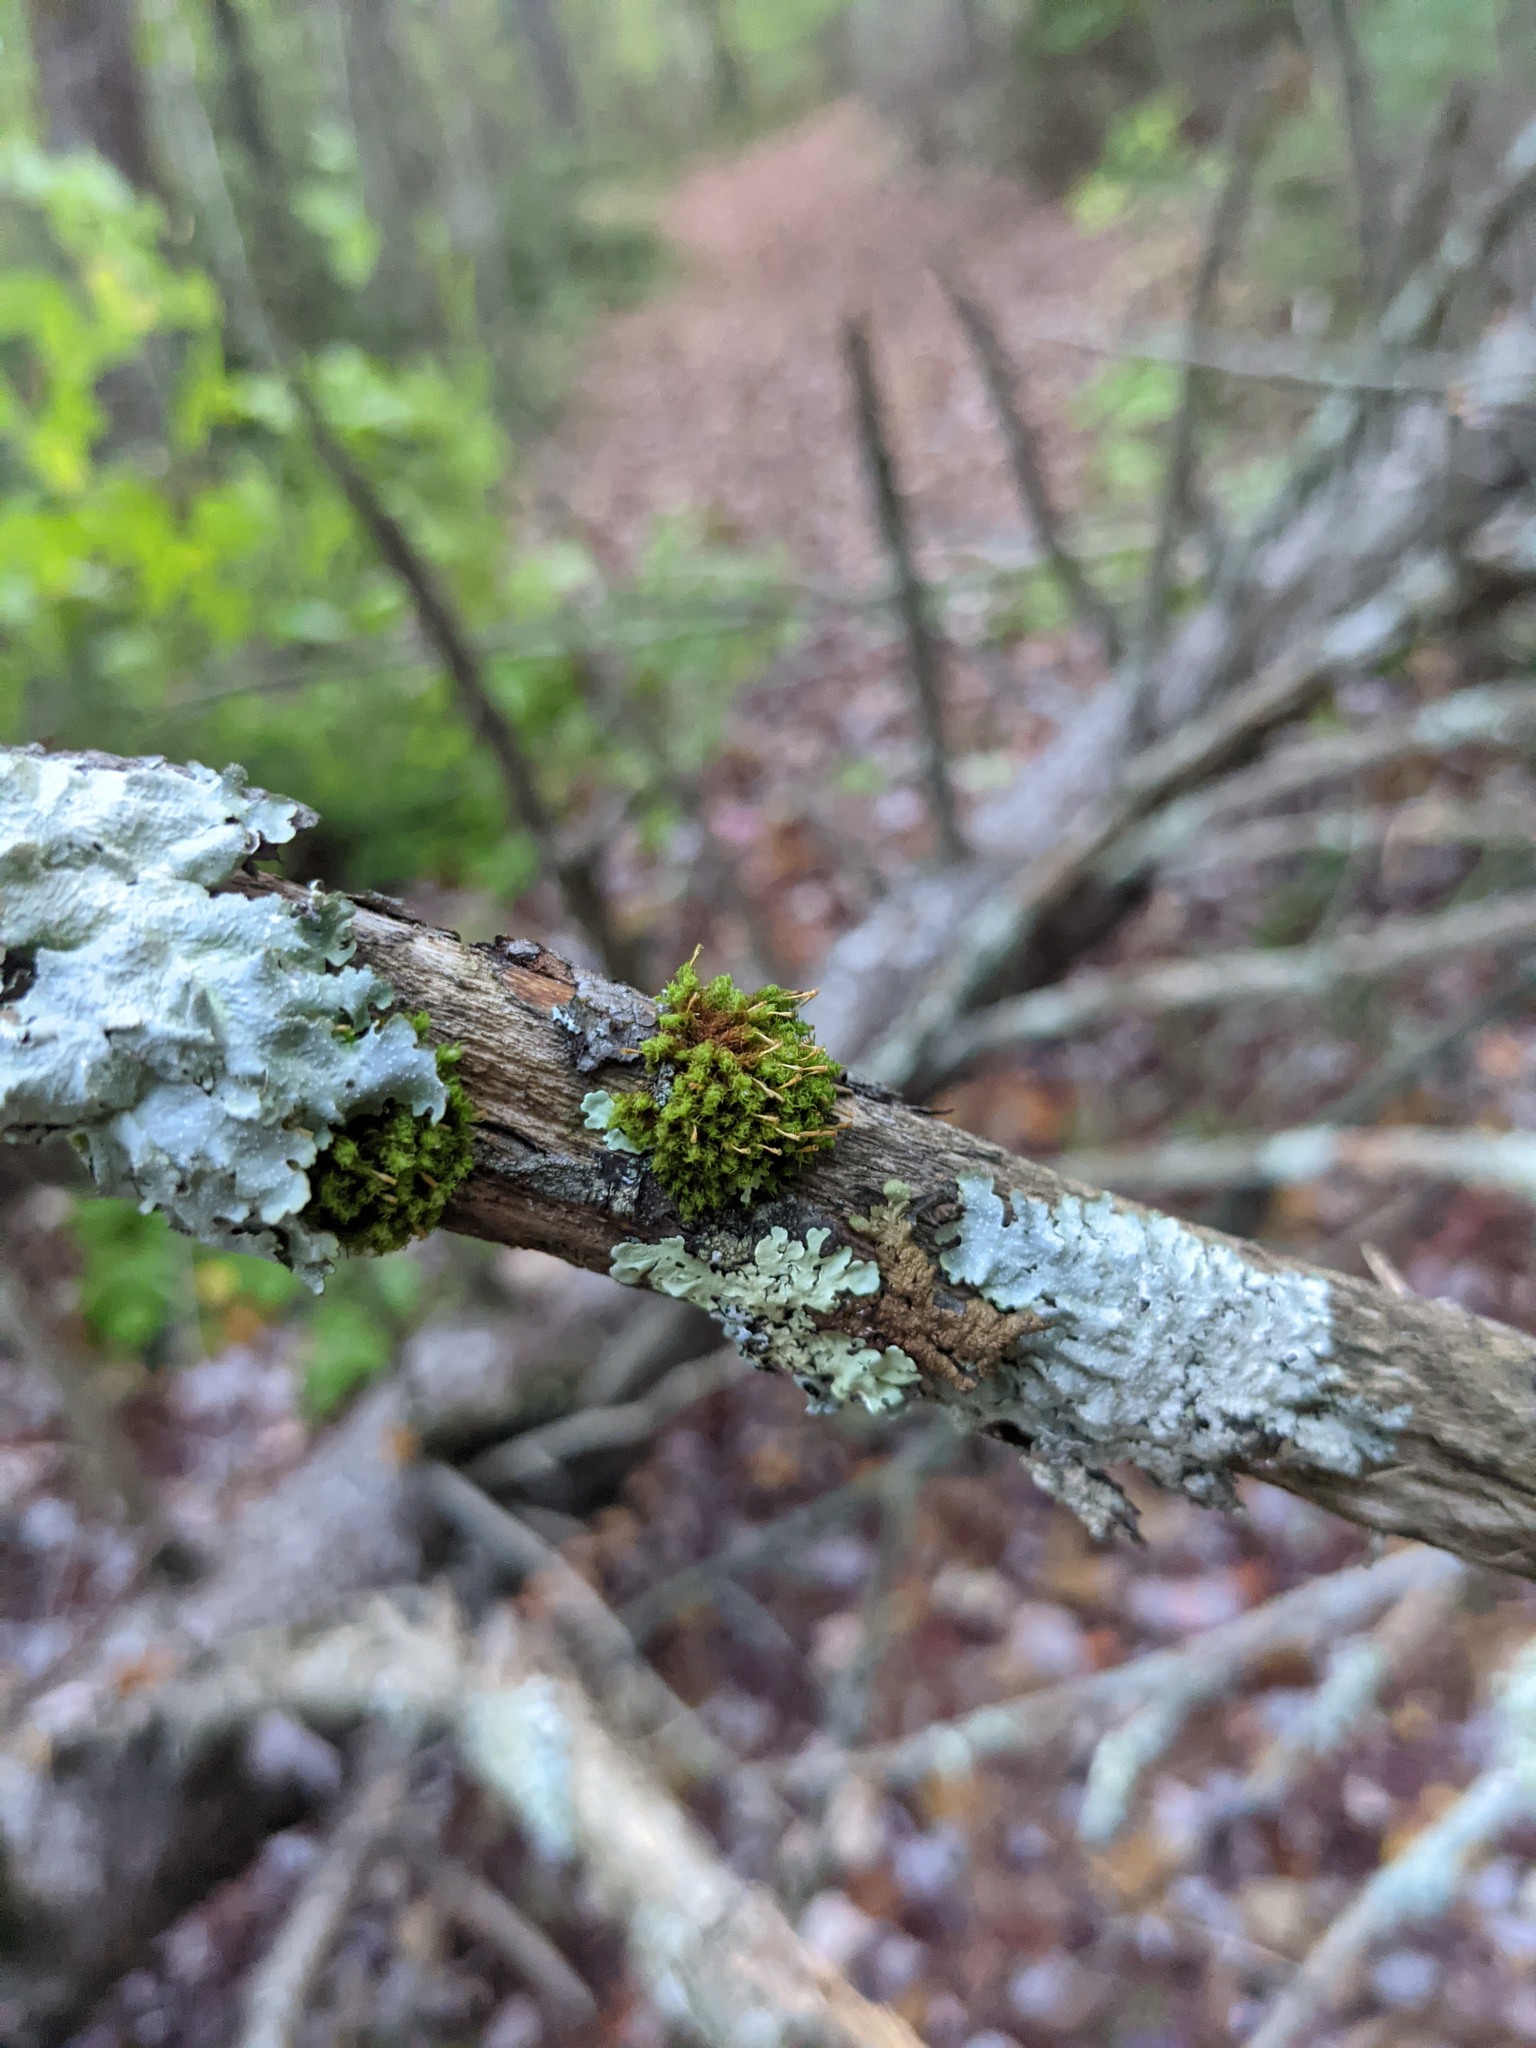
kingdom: Plantae
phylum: Bryophyta
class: Bryopsida
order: Orthotrichales
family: Orthotrichaceae
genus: Ulota
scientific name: Ulota crispa
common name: Crisped pincushion moss
